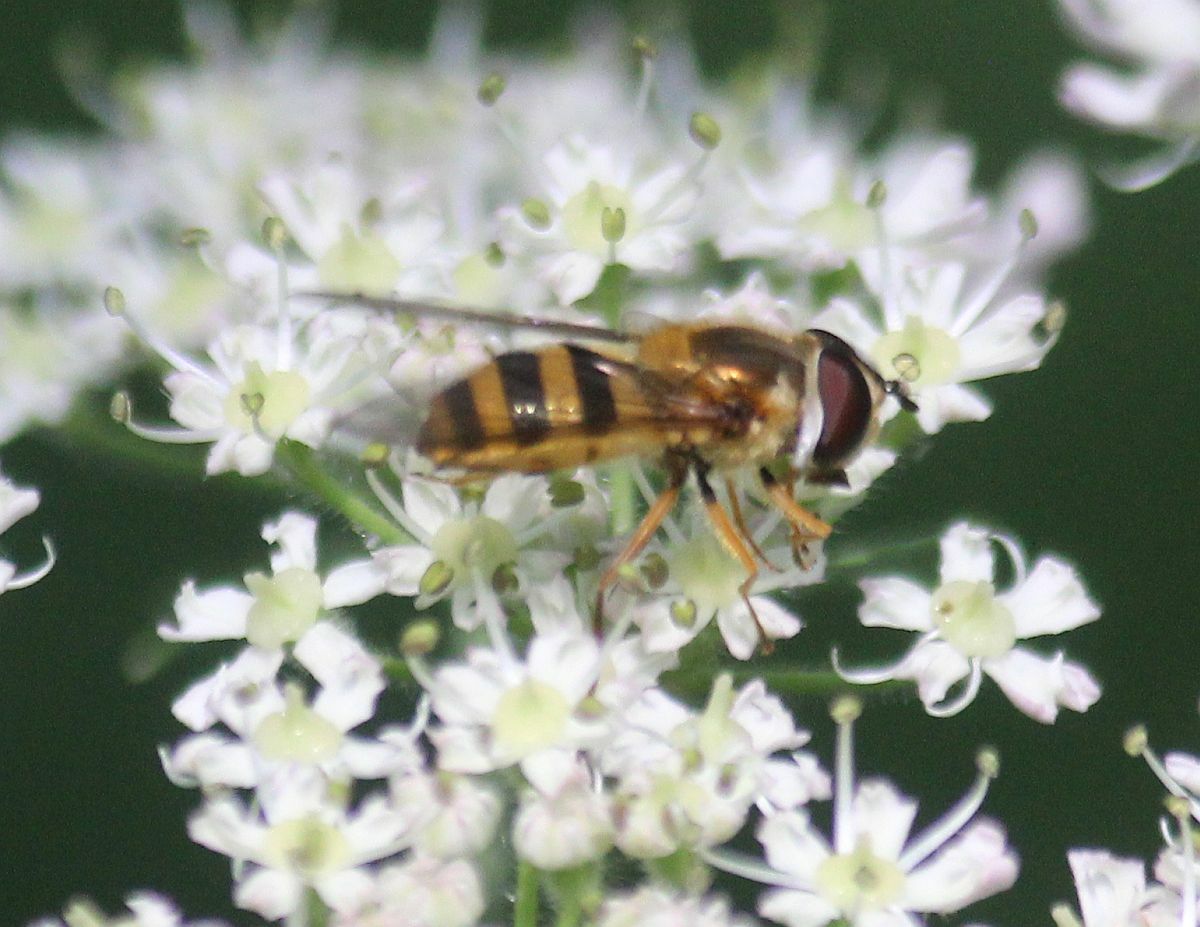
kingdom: Animalia
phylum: Arthropoda
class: Insecta
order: Diptera
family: Syrphidae
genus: Epistrophe
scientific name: Epistrophe grossulariae
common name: Black-horned smoothtail
